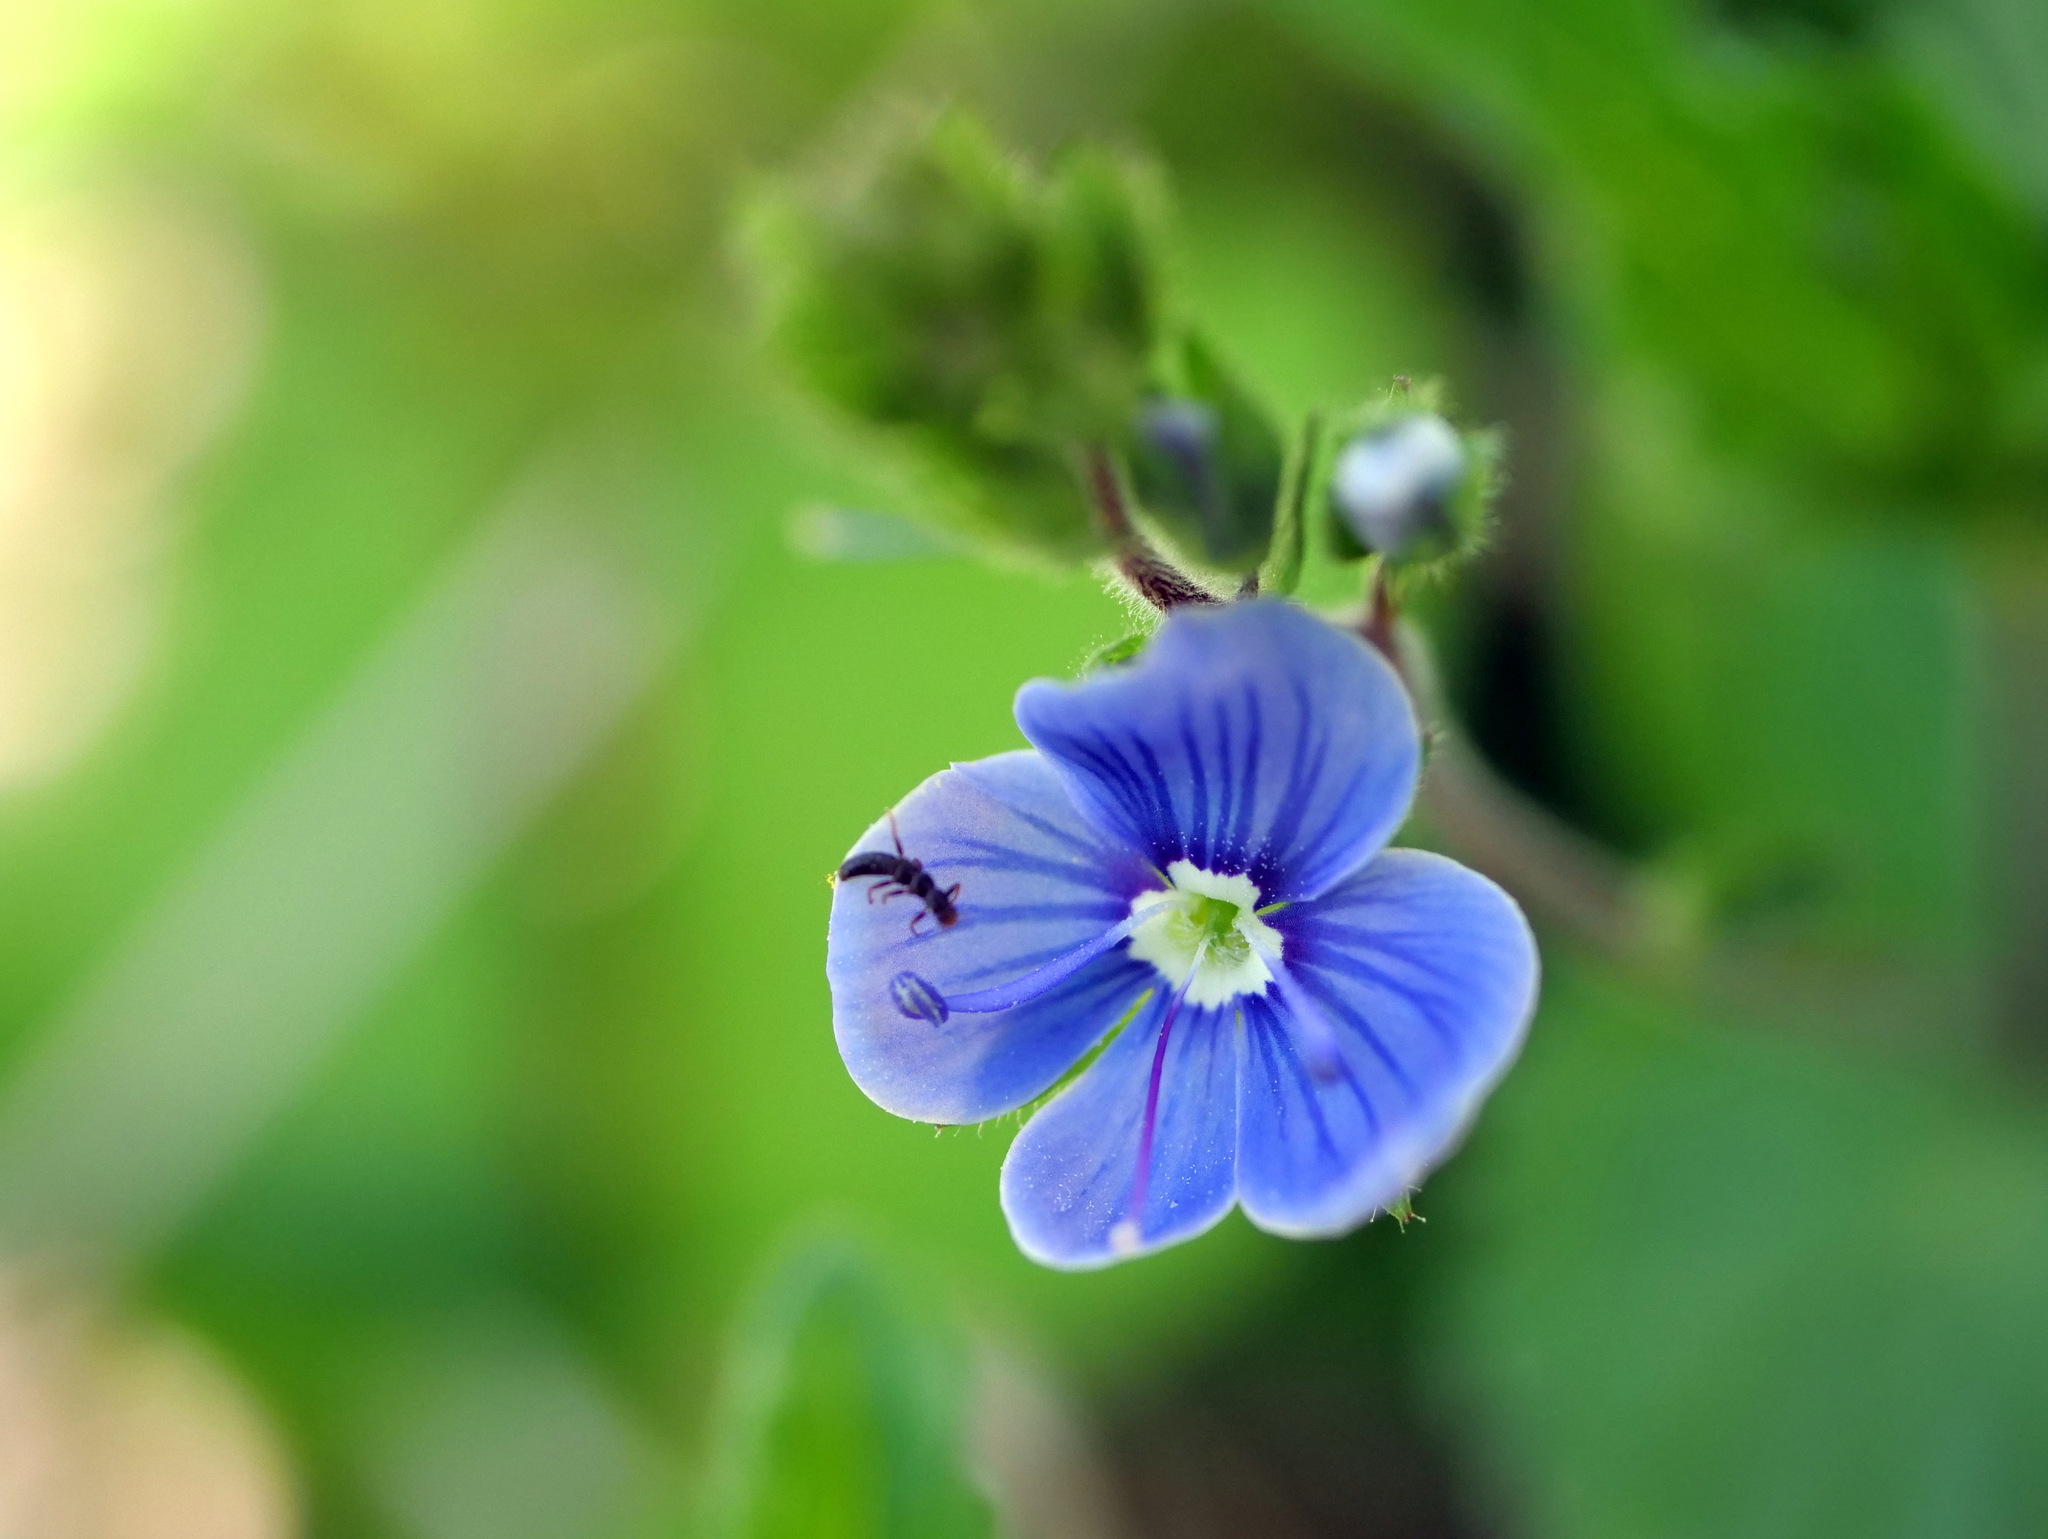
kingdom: Plantae
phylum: Tracheophyta
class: Magnoliopsida
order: Lamiales
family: Plantaginaceae
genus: Veronica
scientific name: Veronica chamaedrys
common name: Germander speedwell
